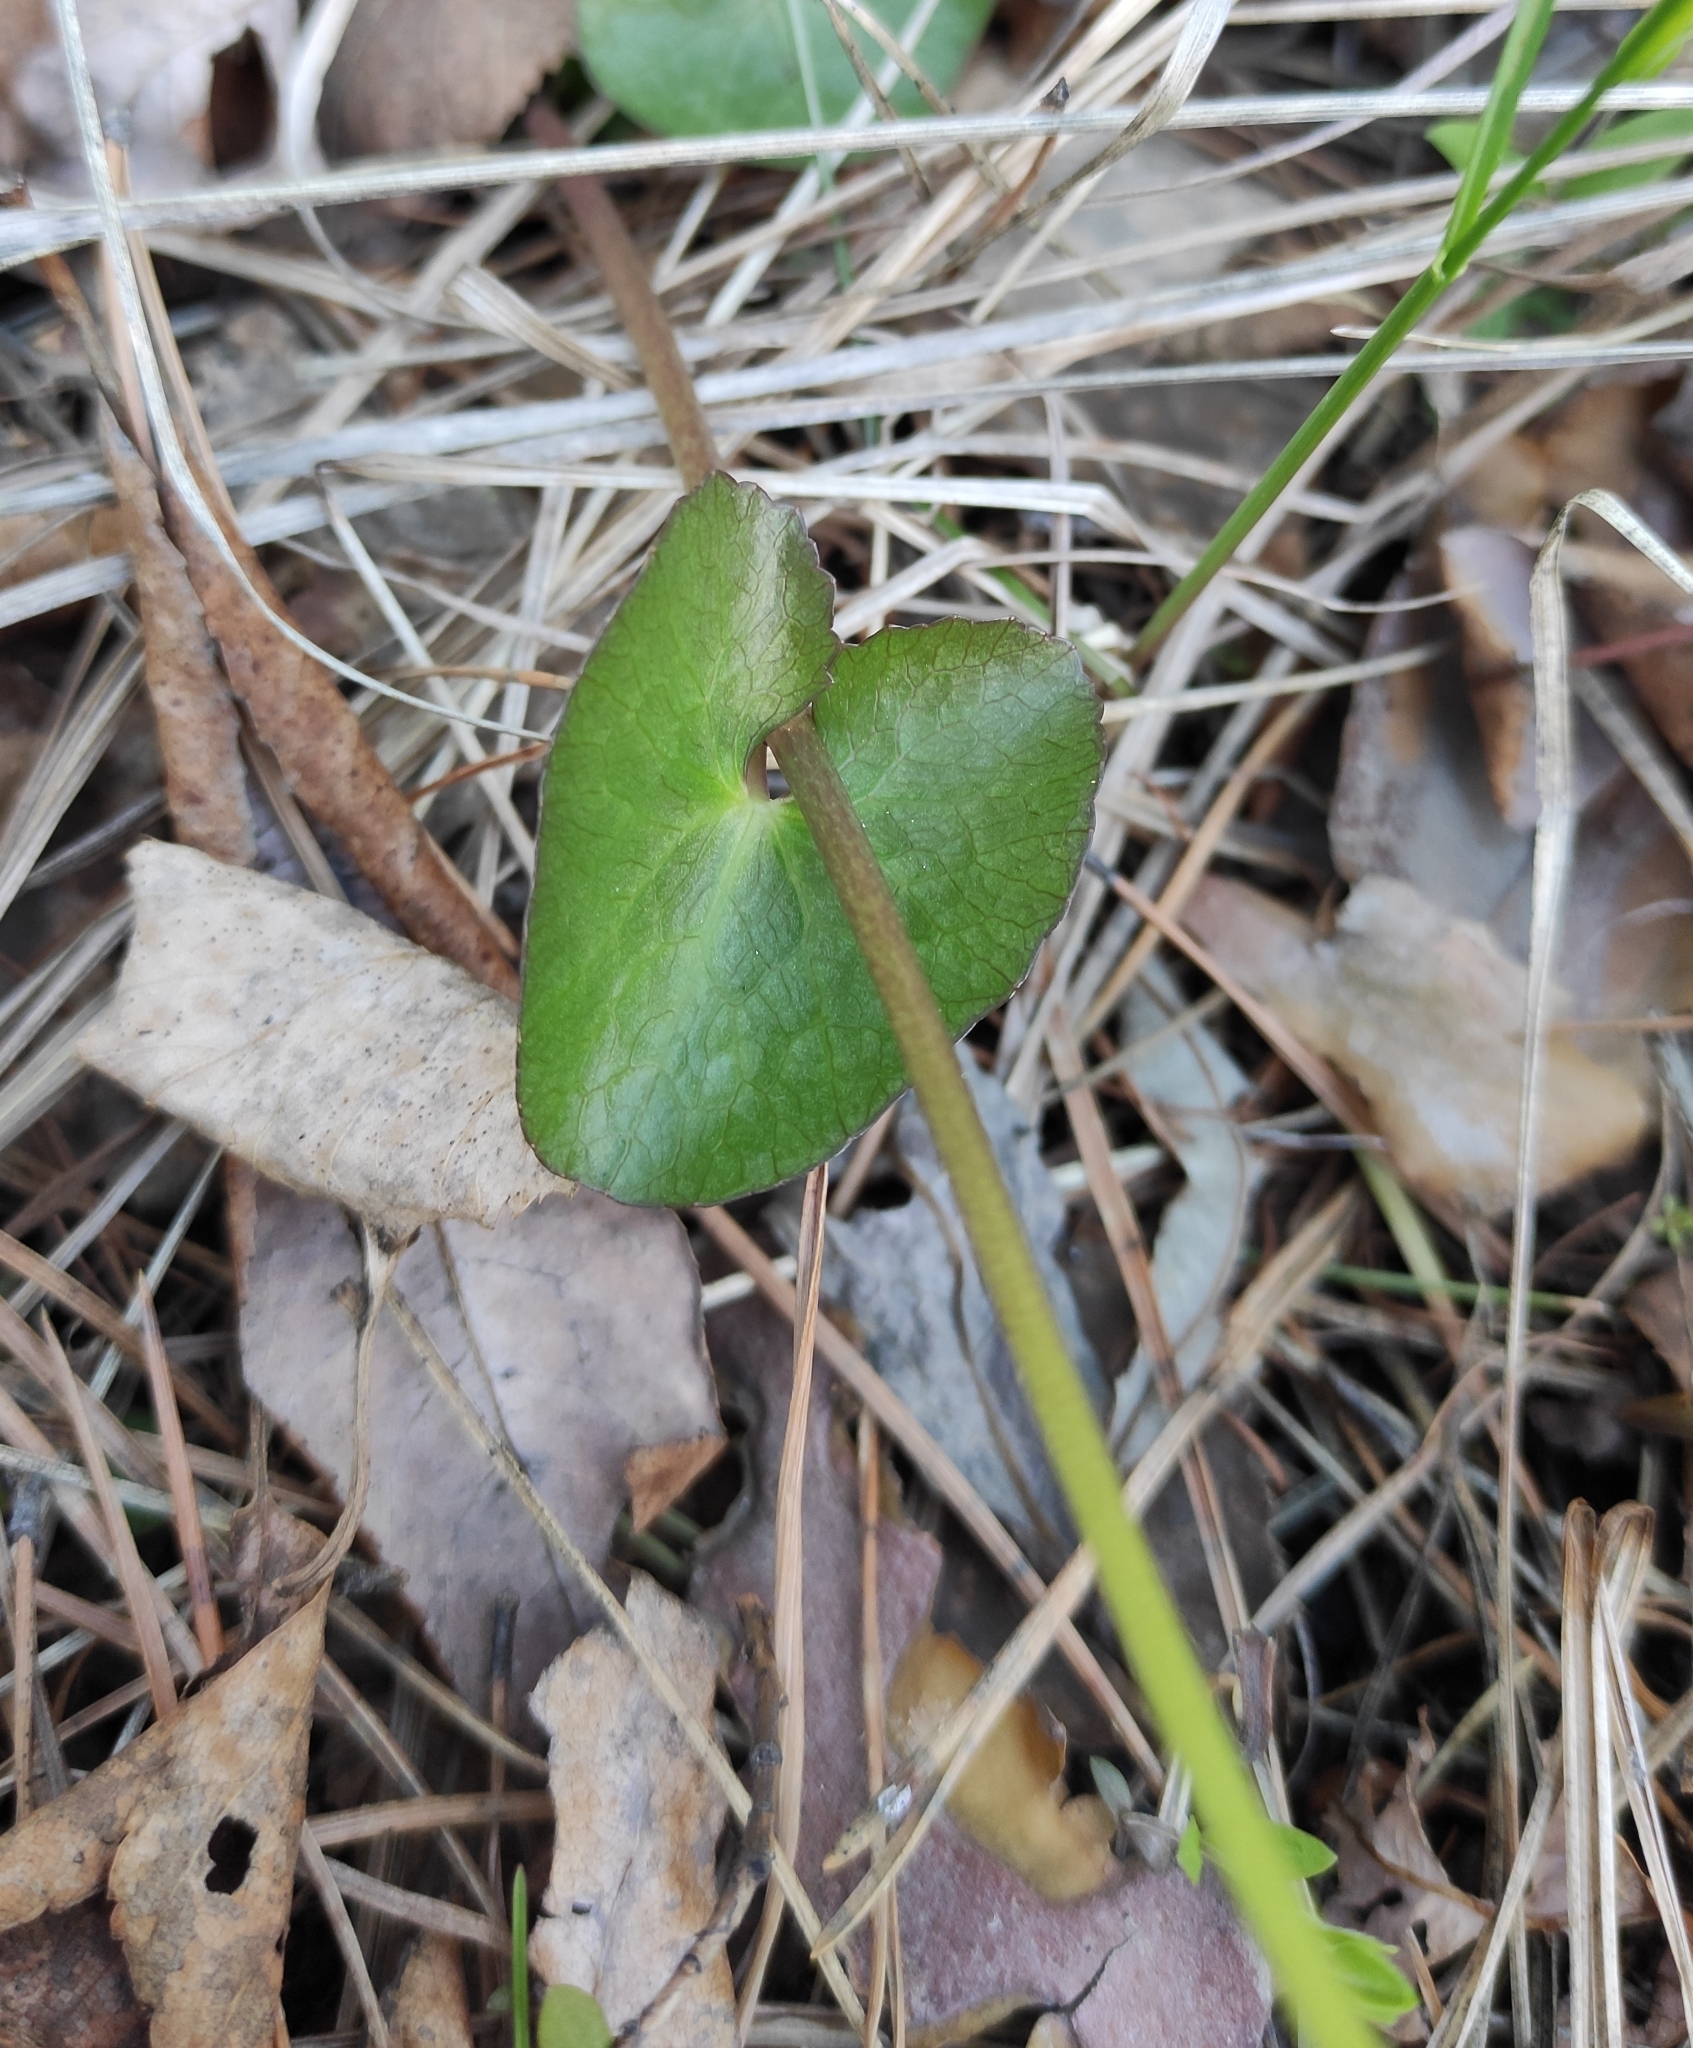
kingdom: Plantae
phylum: Tracheophyta
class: Magnoliopsida
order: Ranunculales
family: Ranunculaceae
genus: Caltha
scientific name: Caltha palustris
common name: Marsh marigold
